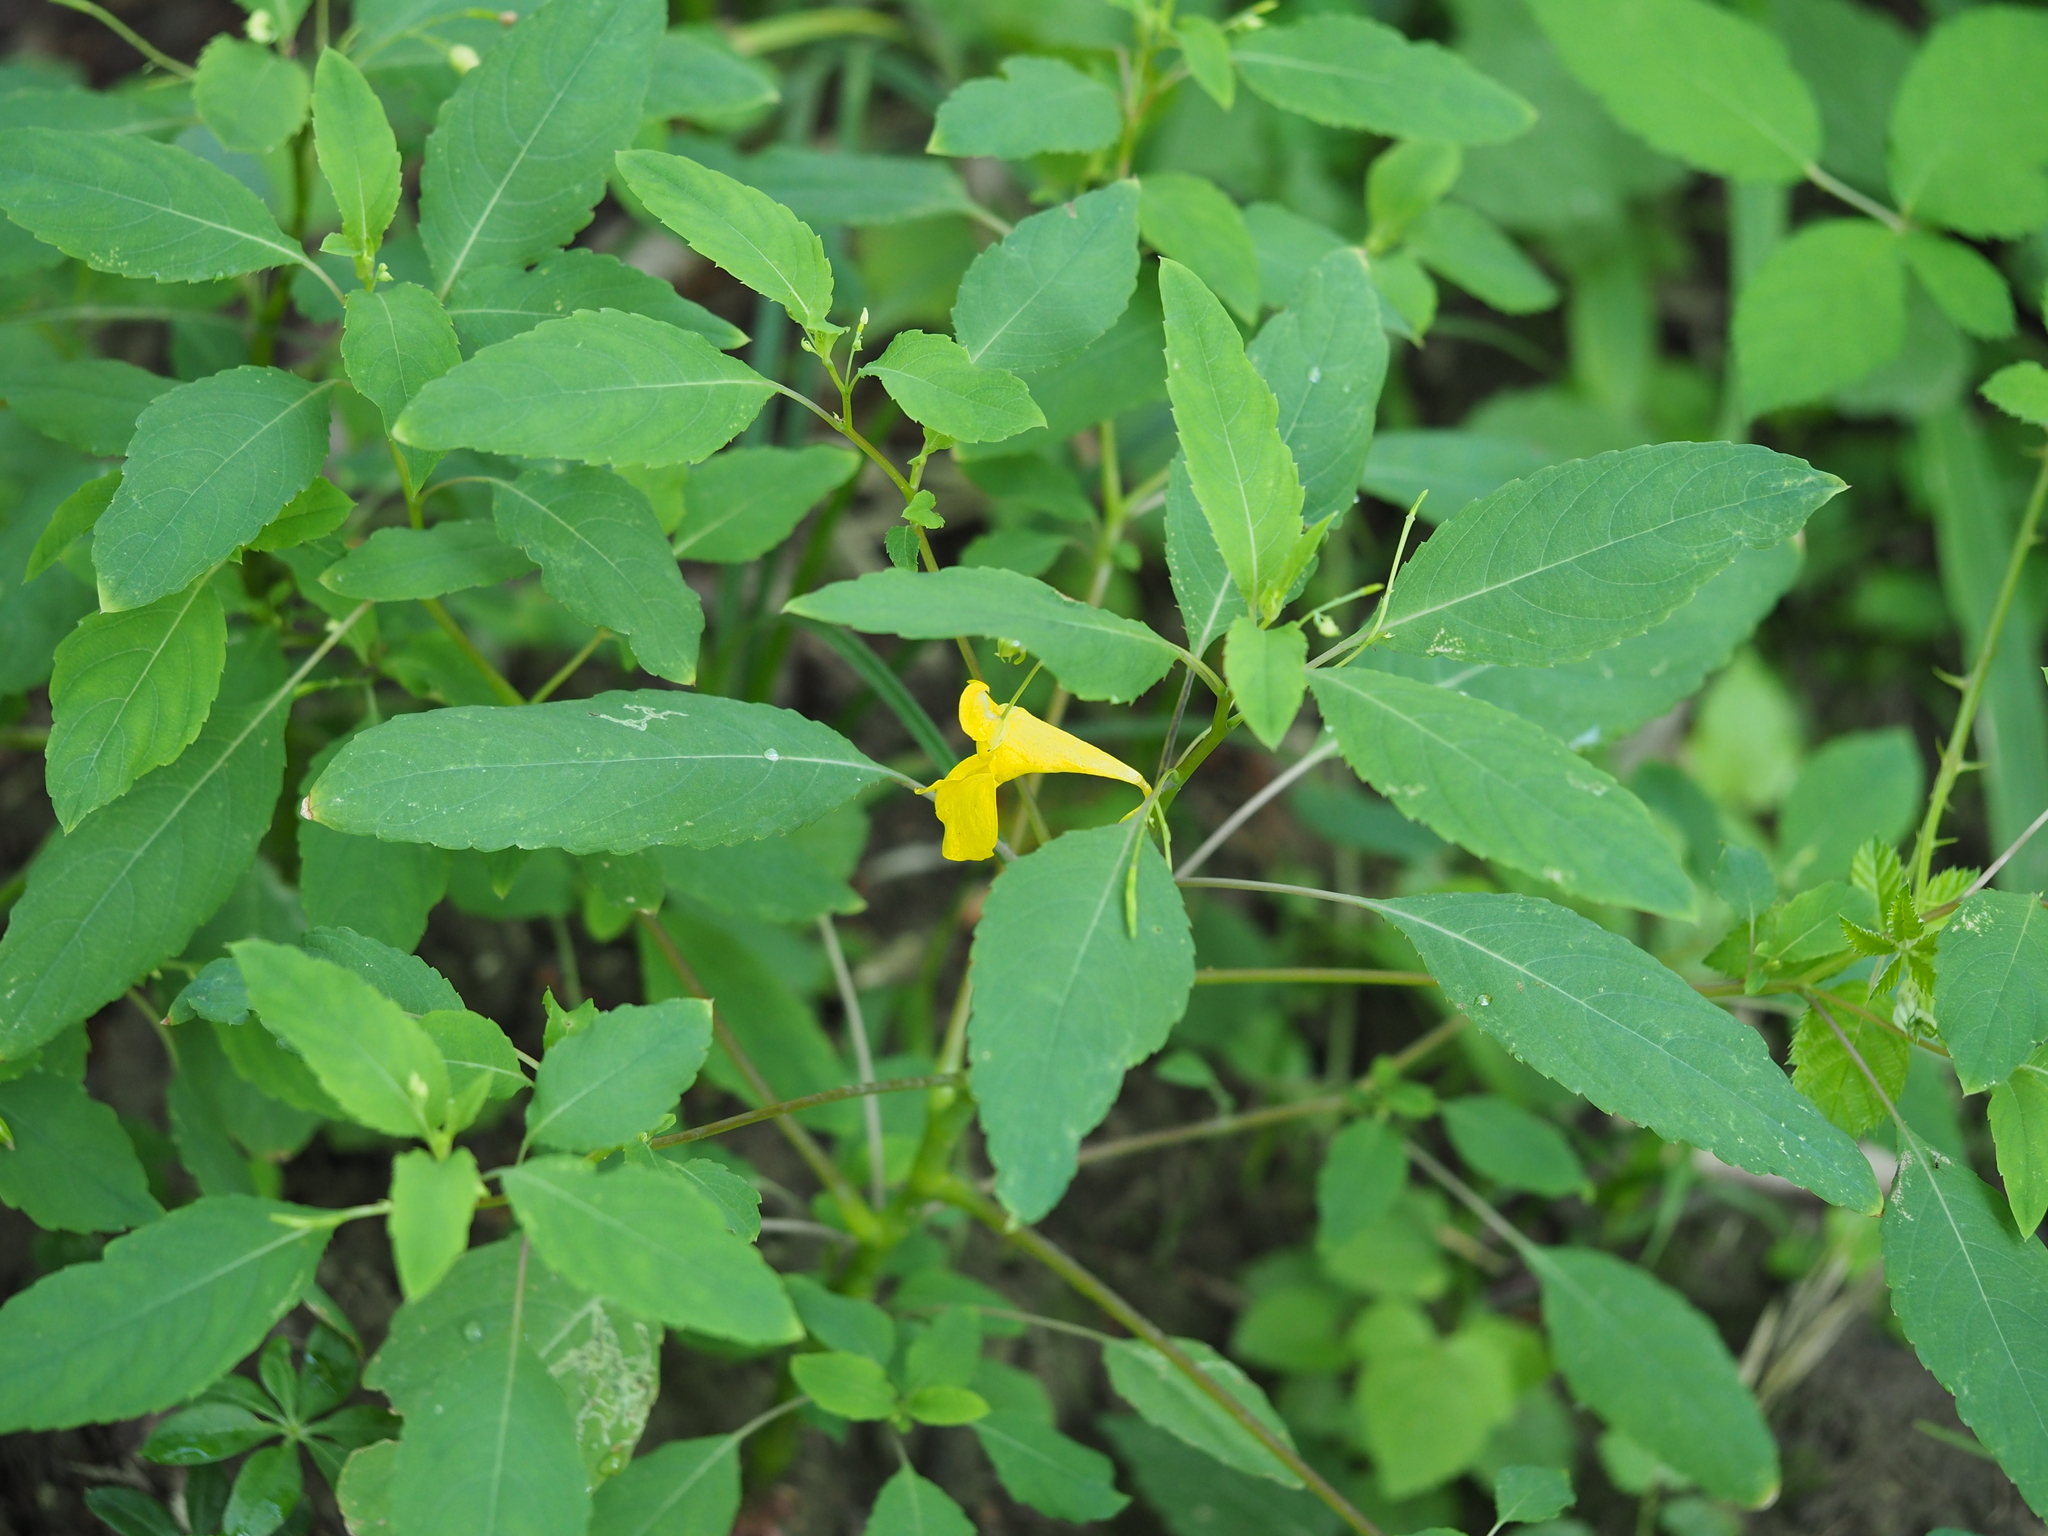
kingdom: Plantae
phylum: Tracheophyta
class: Magnoliopsida
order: Ericales
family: Balsaminaceae
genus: Impatiens
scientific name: Impatiens noli-tangere
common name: Touch-me-not balsam
